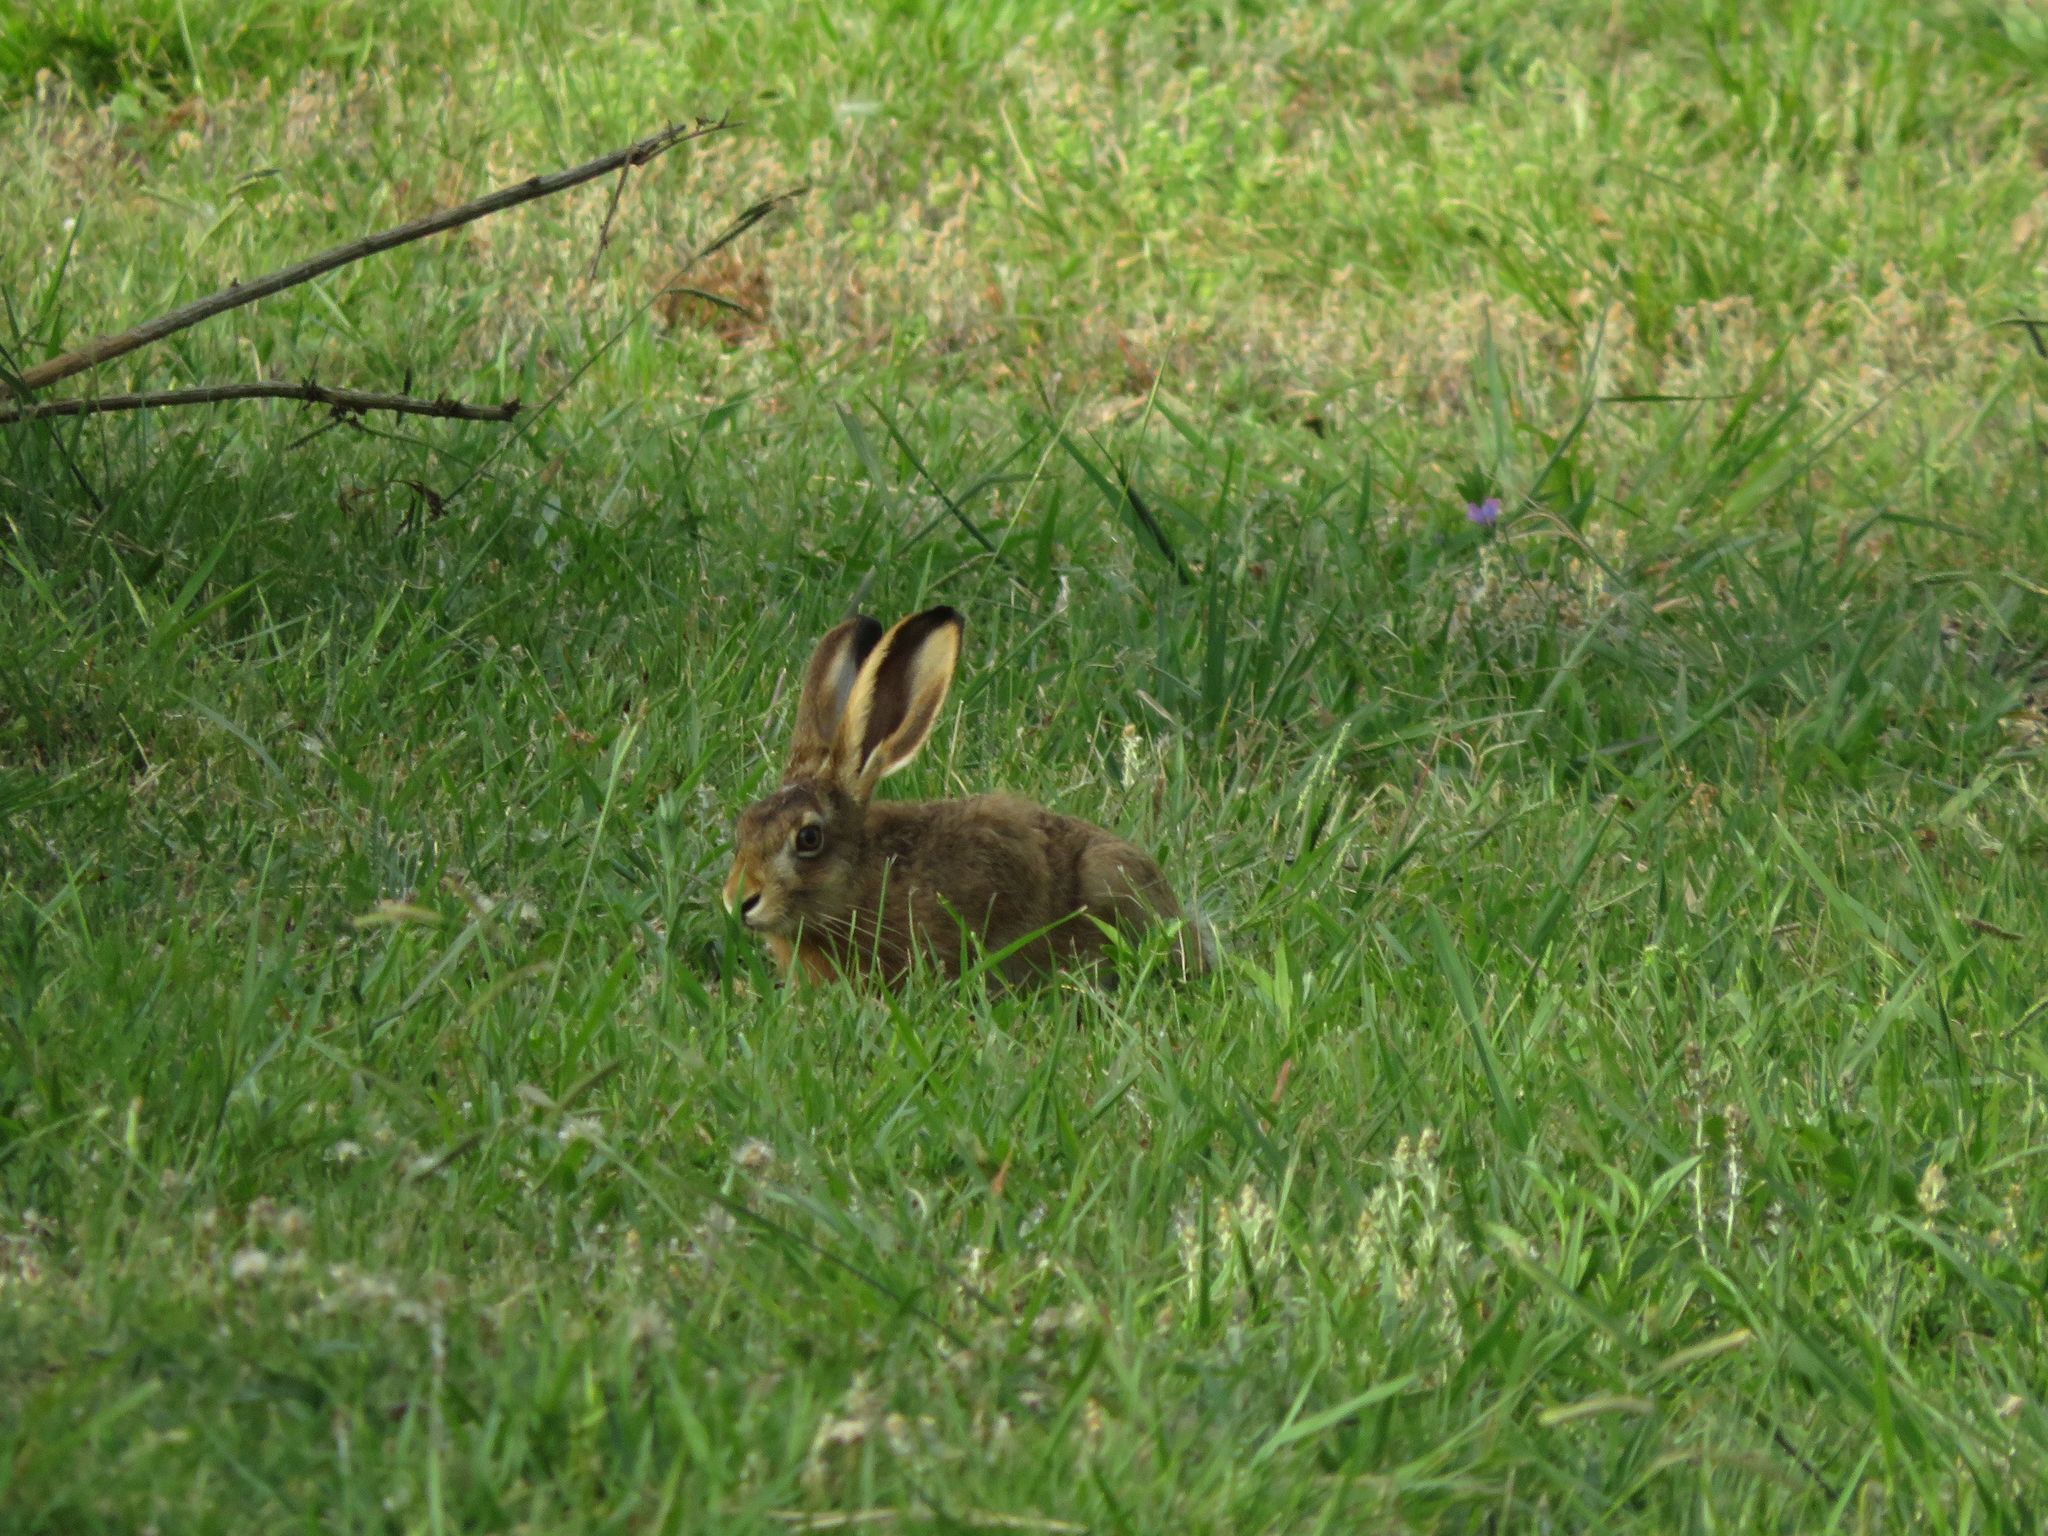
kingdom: Animalia
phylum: Chordata
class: Mammalia
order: Lagomorpha
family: Leporidae
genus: Lepus
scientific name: Lepus europaeus
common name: European hare
